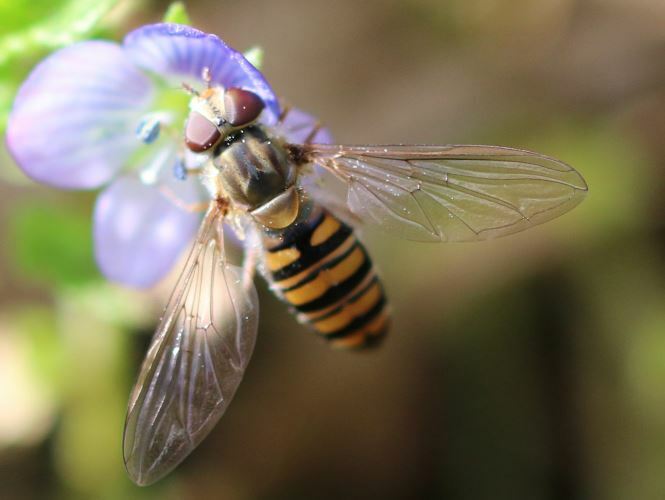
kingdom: Animalia
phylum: Arthropoda
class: Insecta
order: Diptera
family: Syrphidae
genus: Episyrphus
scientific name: Episyrphus balteatus
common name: Marmalade hoverfly
